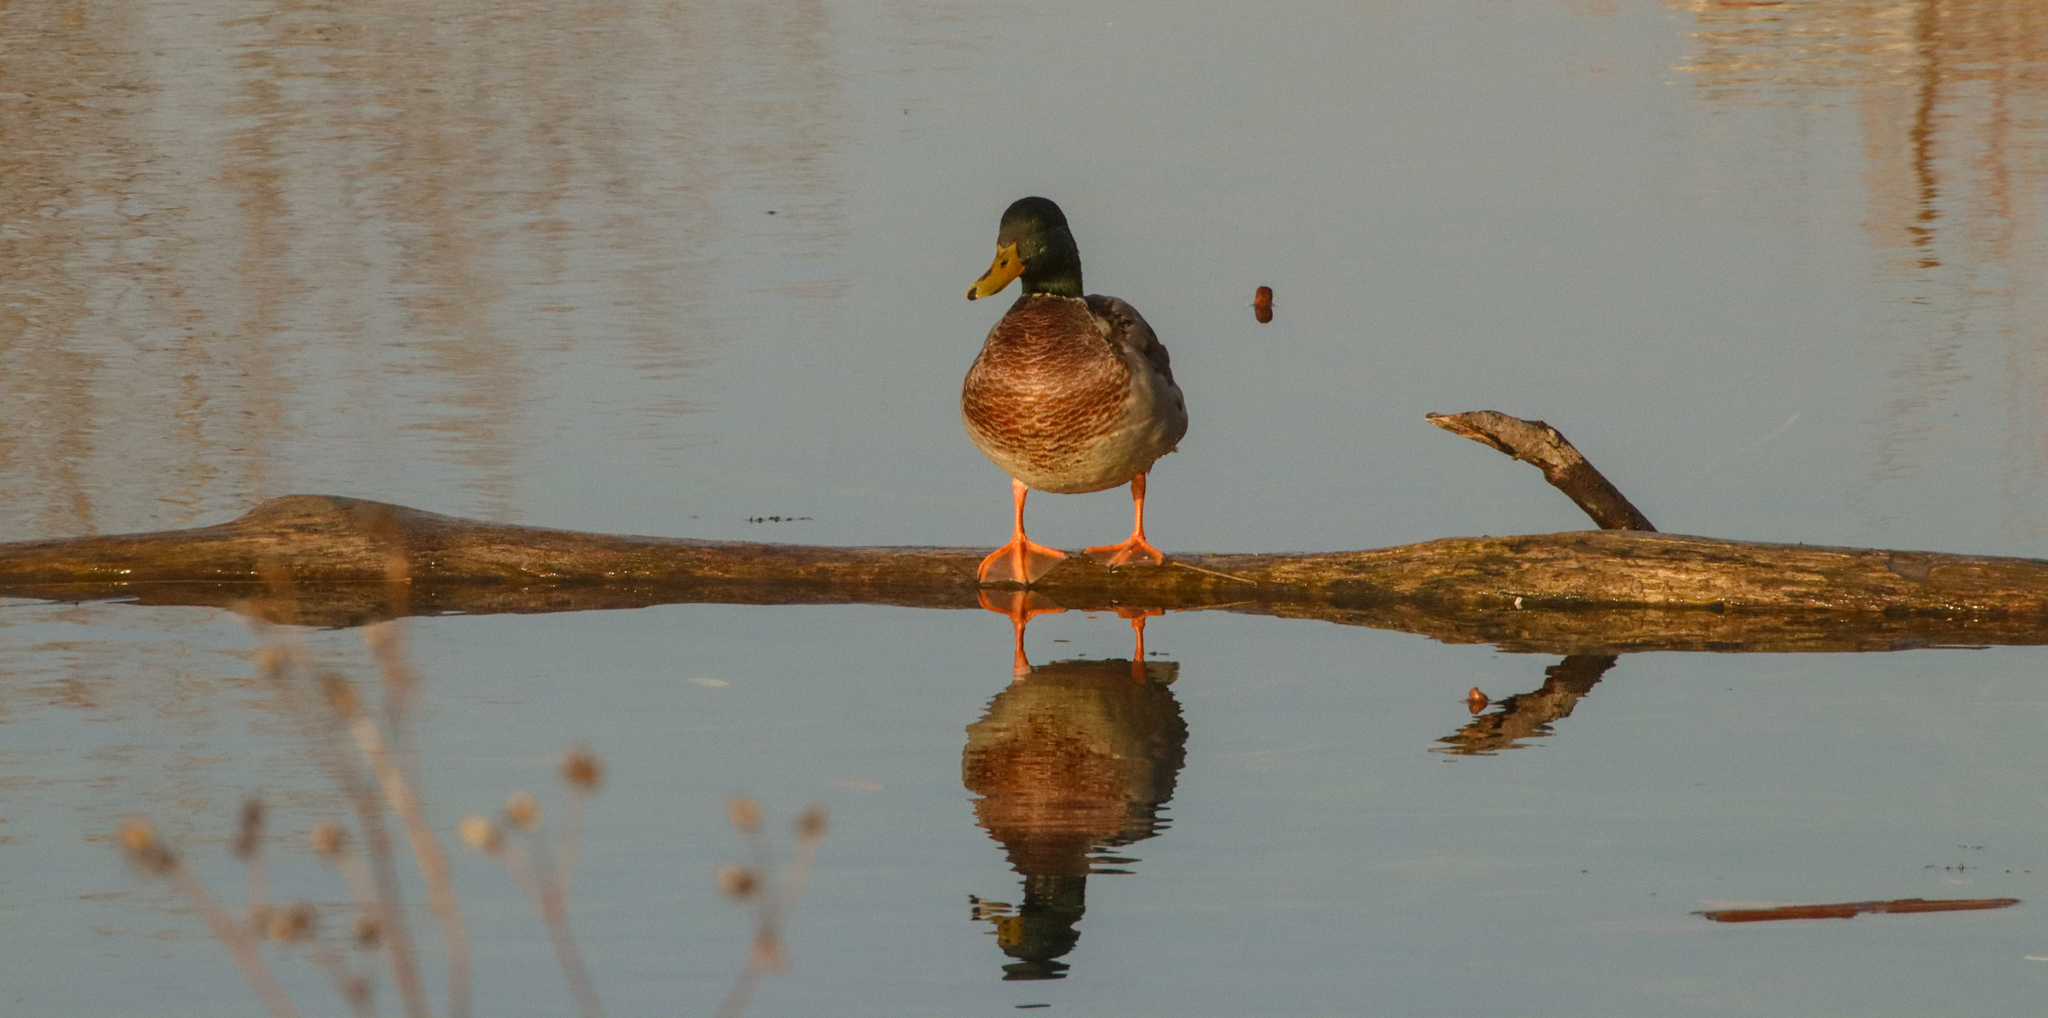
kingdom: Animalia
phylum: Chordata
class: Aves
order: Anseriformes
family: Anatidae
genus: Anas
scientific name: Anas platyrhynchos
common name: Mallard
